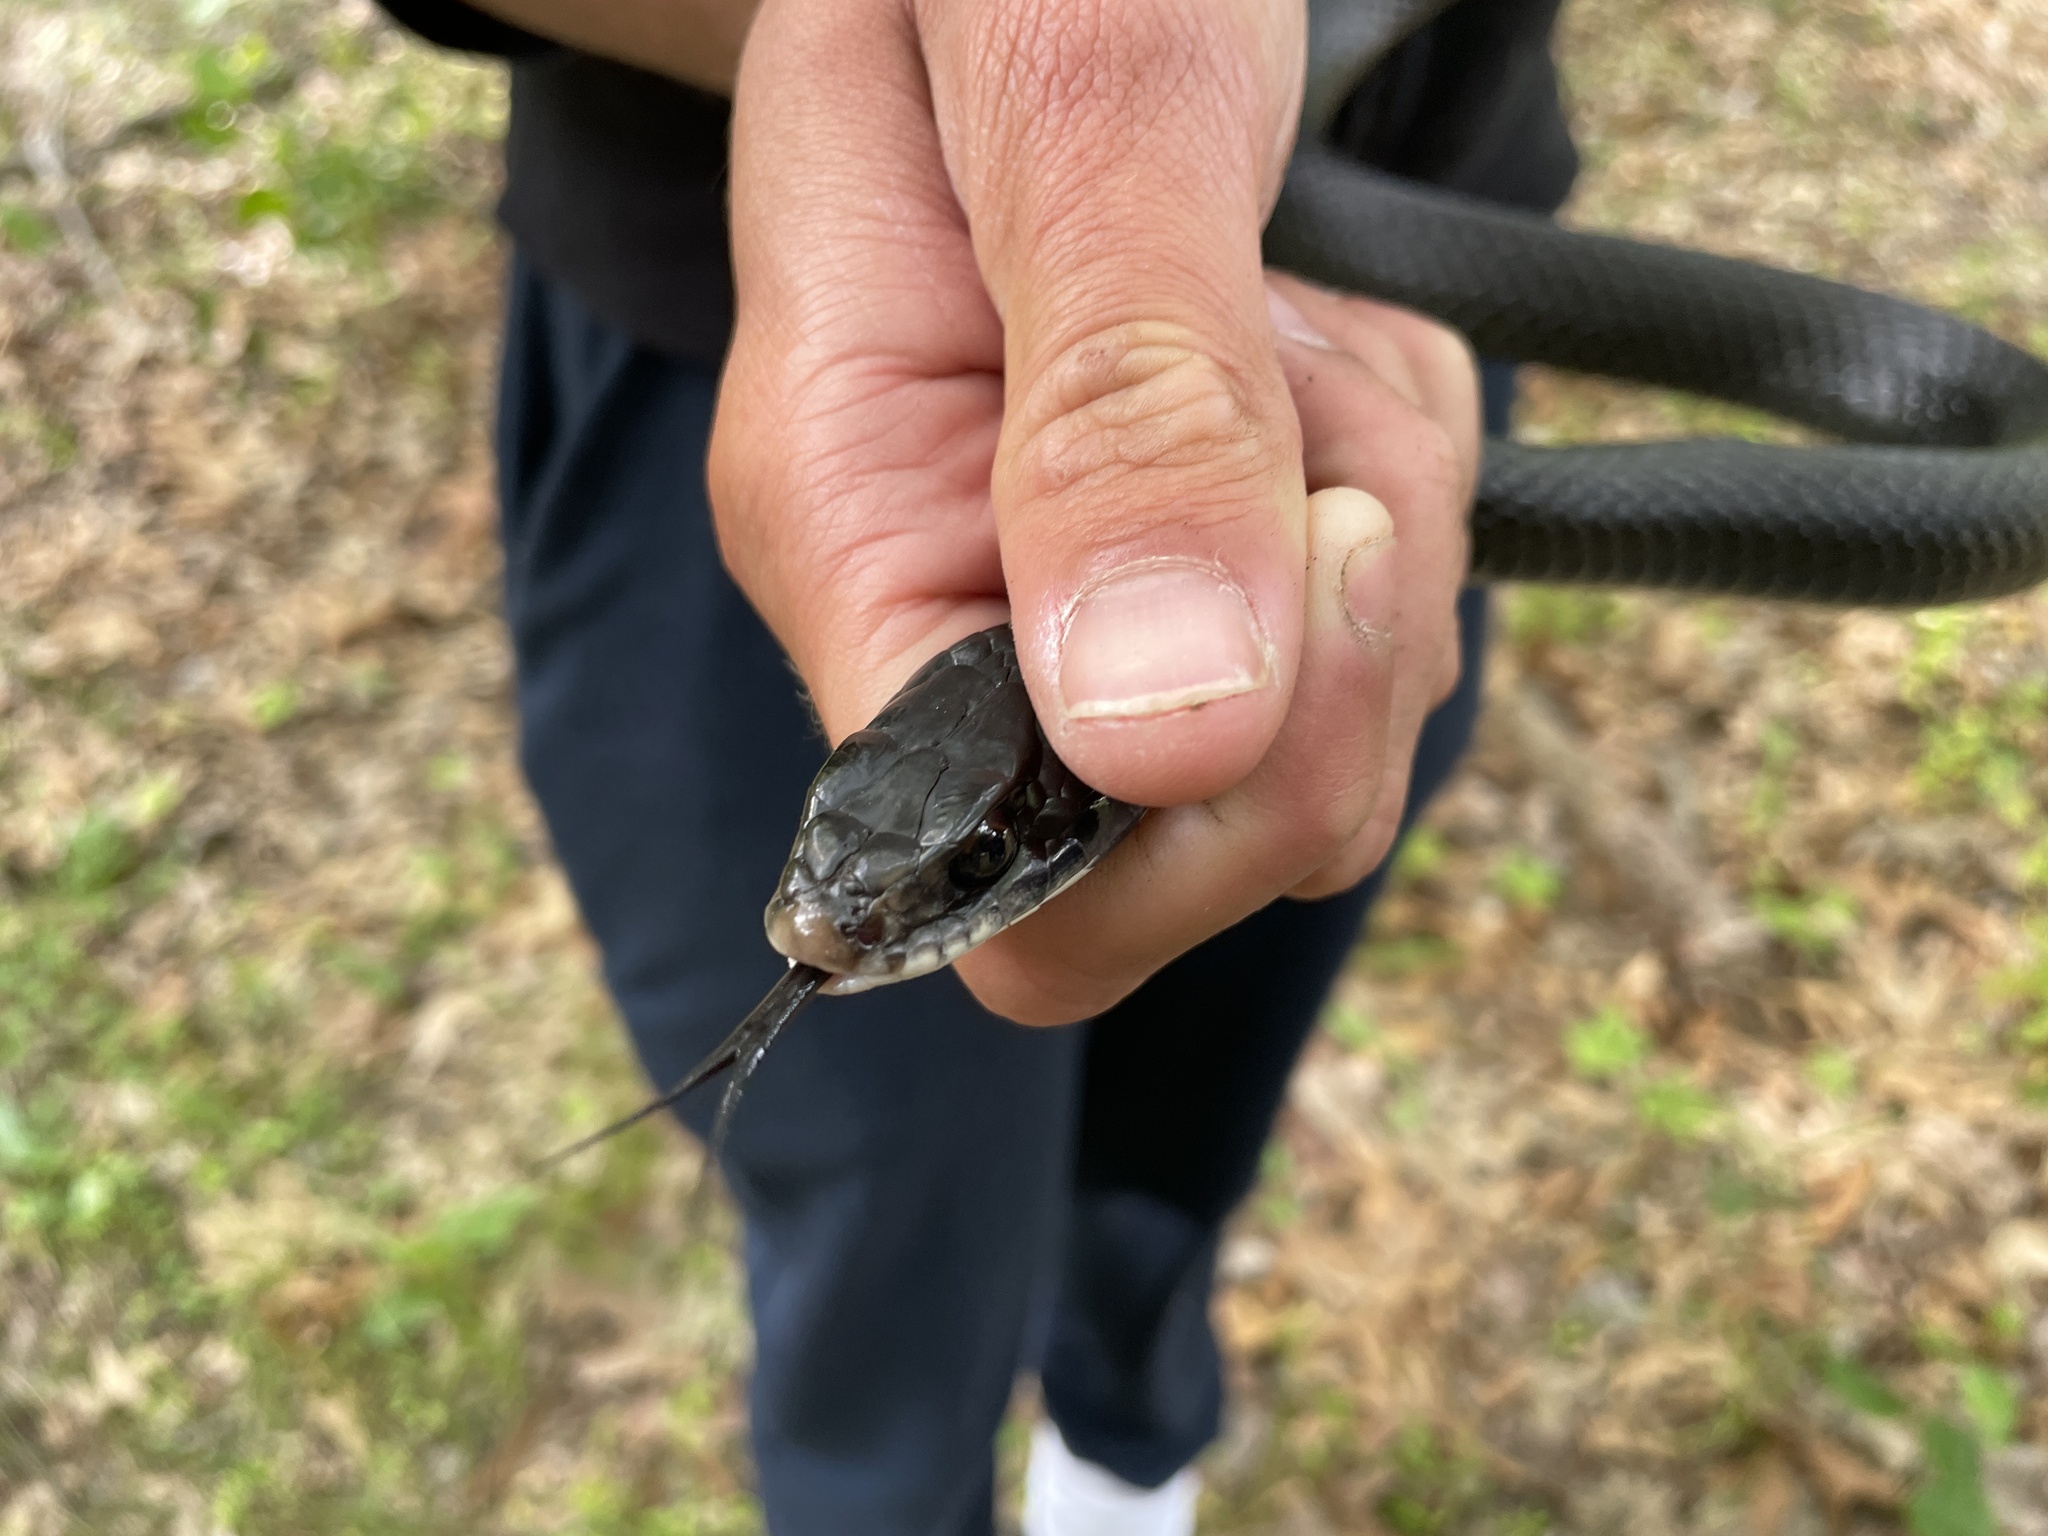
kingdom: Animalia
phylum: Chordata
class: Squamata
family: Colubridae
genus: Coluber
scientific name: Coluber constrictor
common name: Eastern racer
